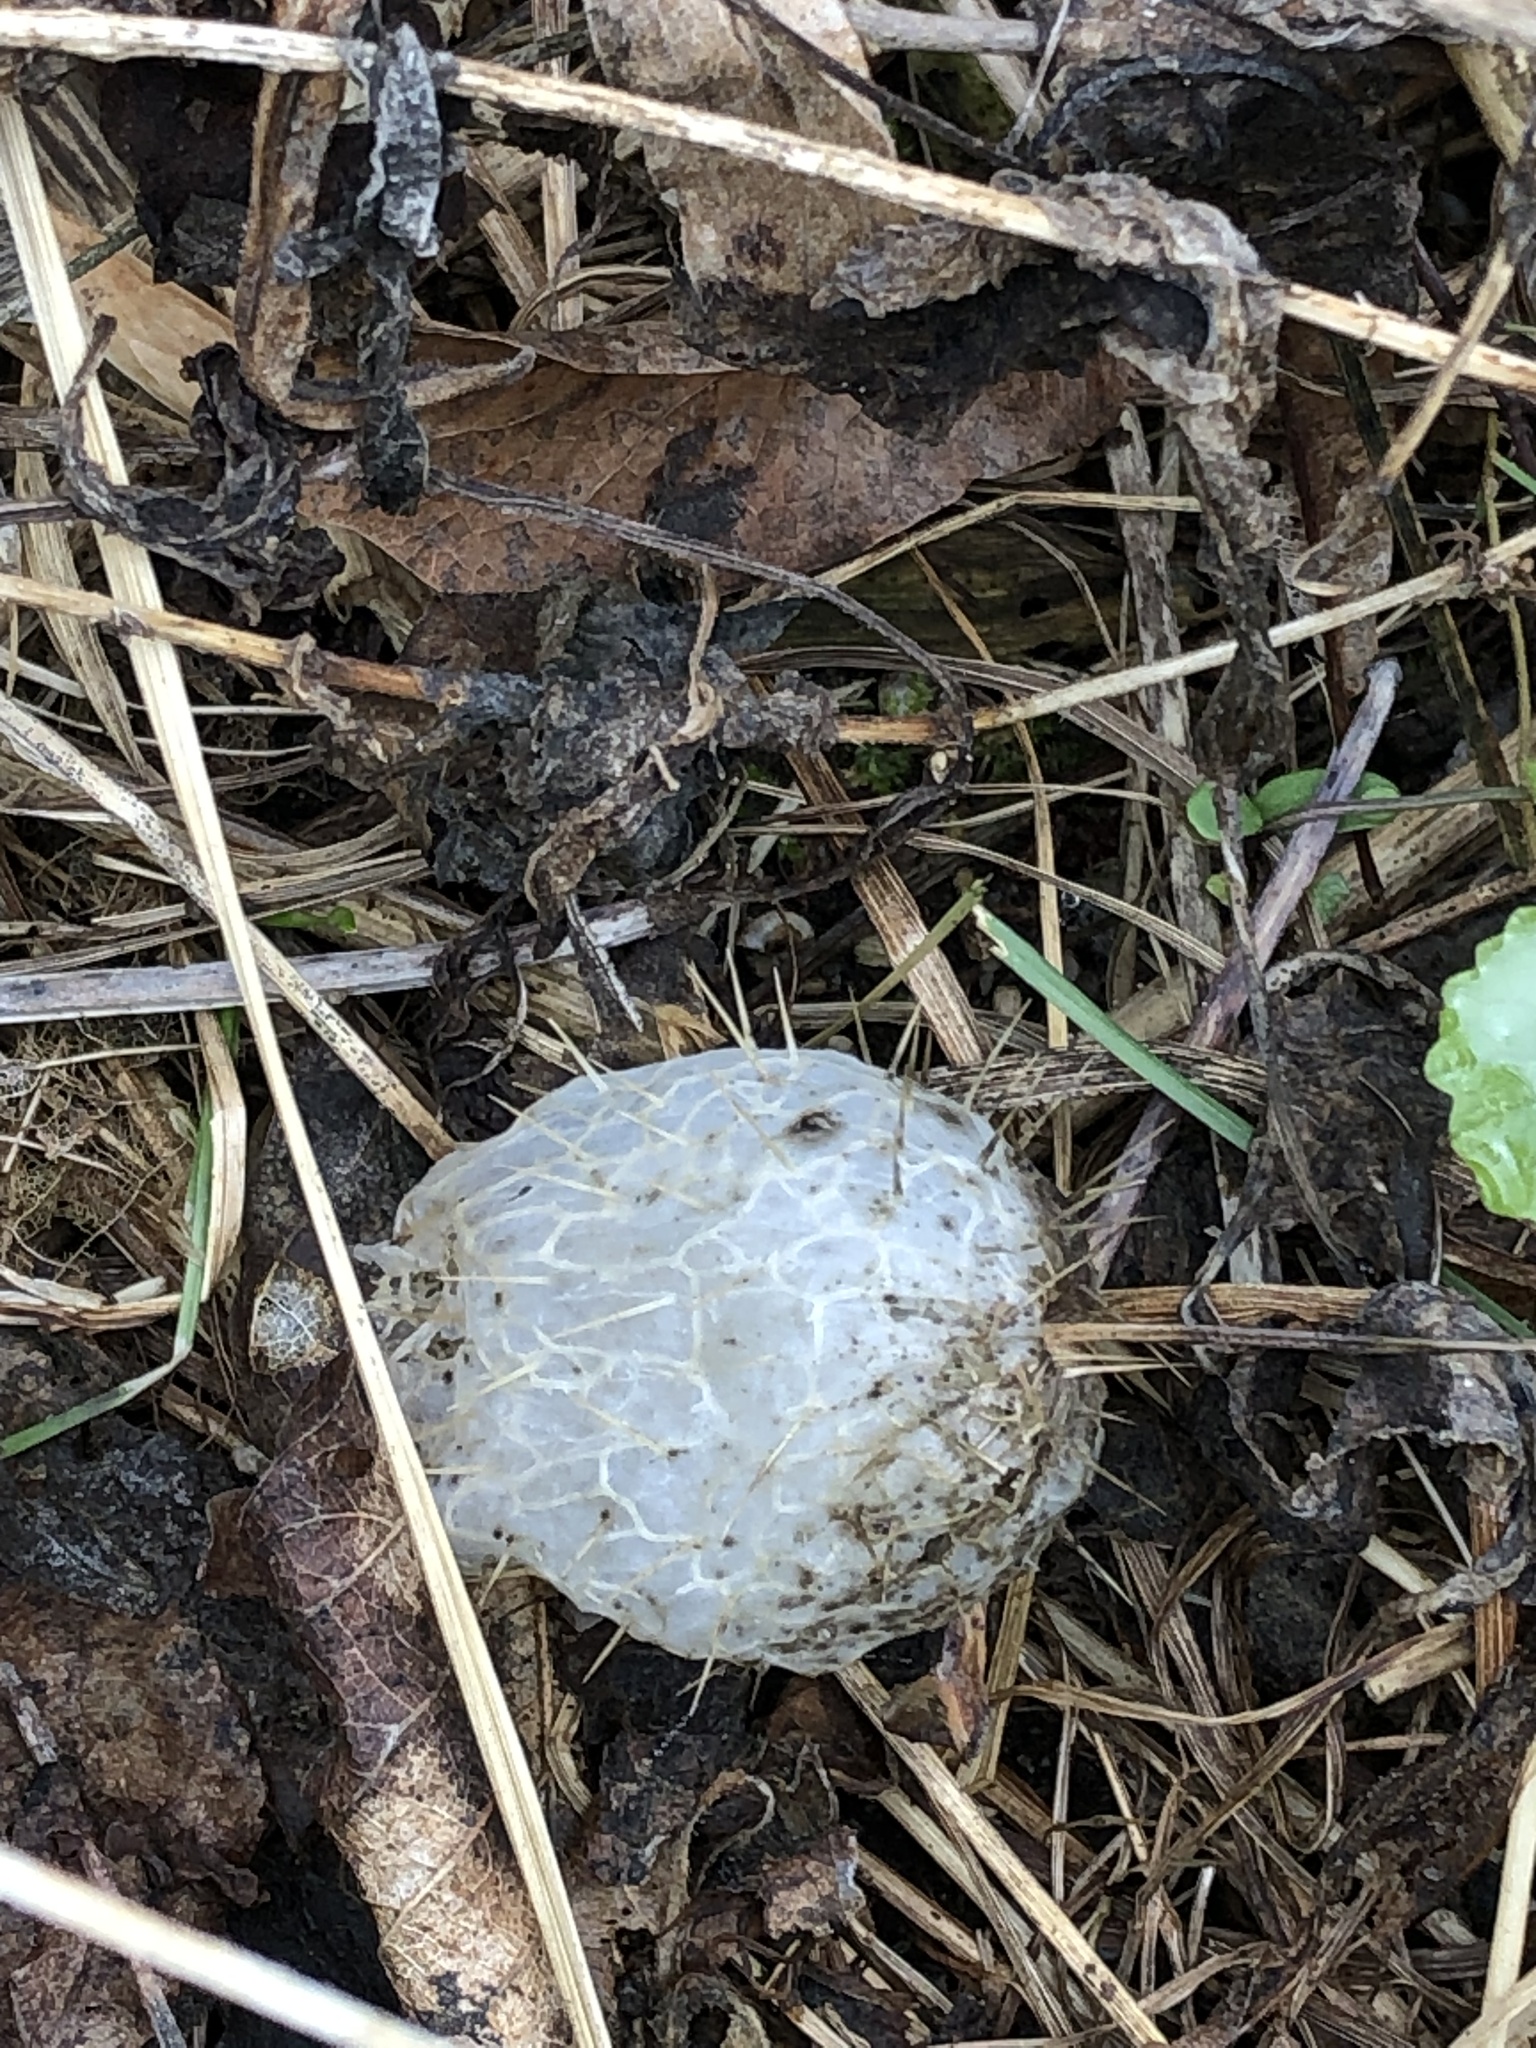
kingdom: Plantae
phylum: Tracheophyta
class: Magnoliopsida
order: Cucurbitales
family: Cucurbitaceae
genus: Echinocystis
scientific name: Echinocystis lobata
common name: Wild cucumber
